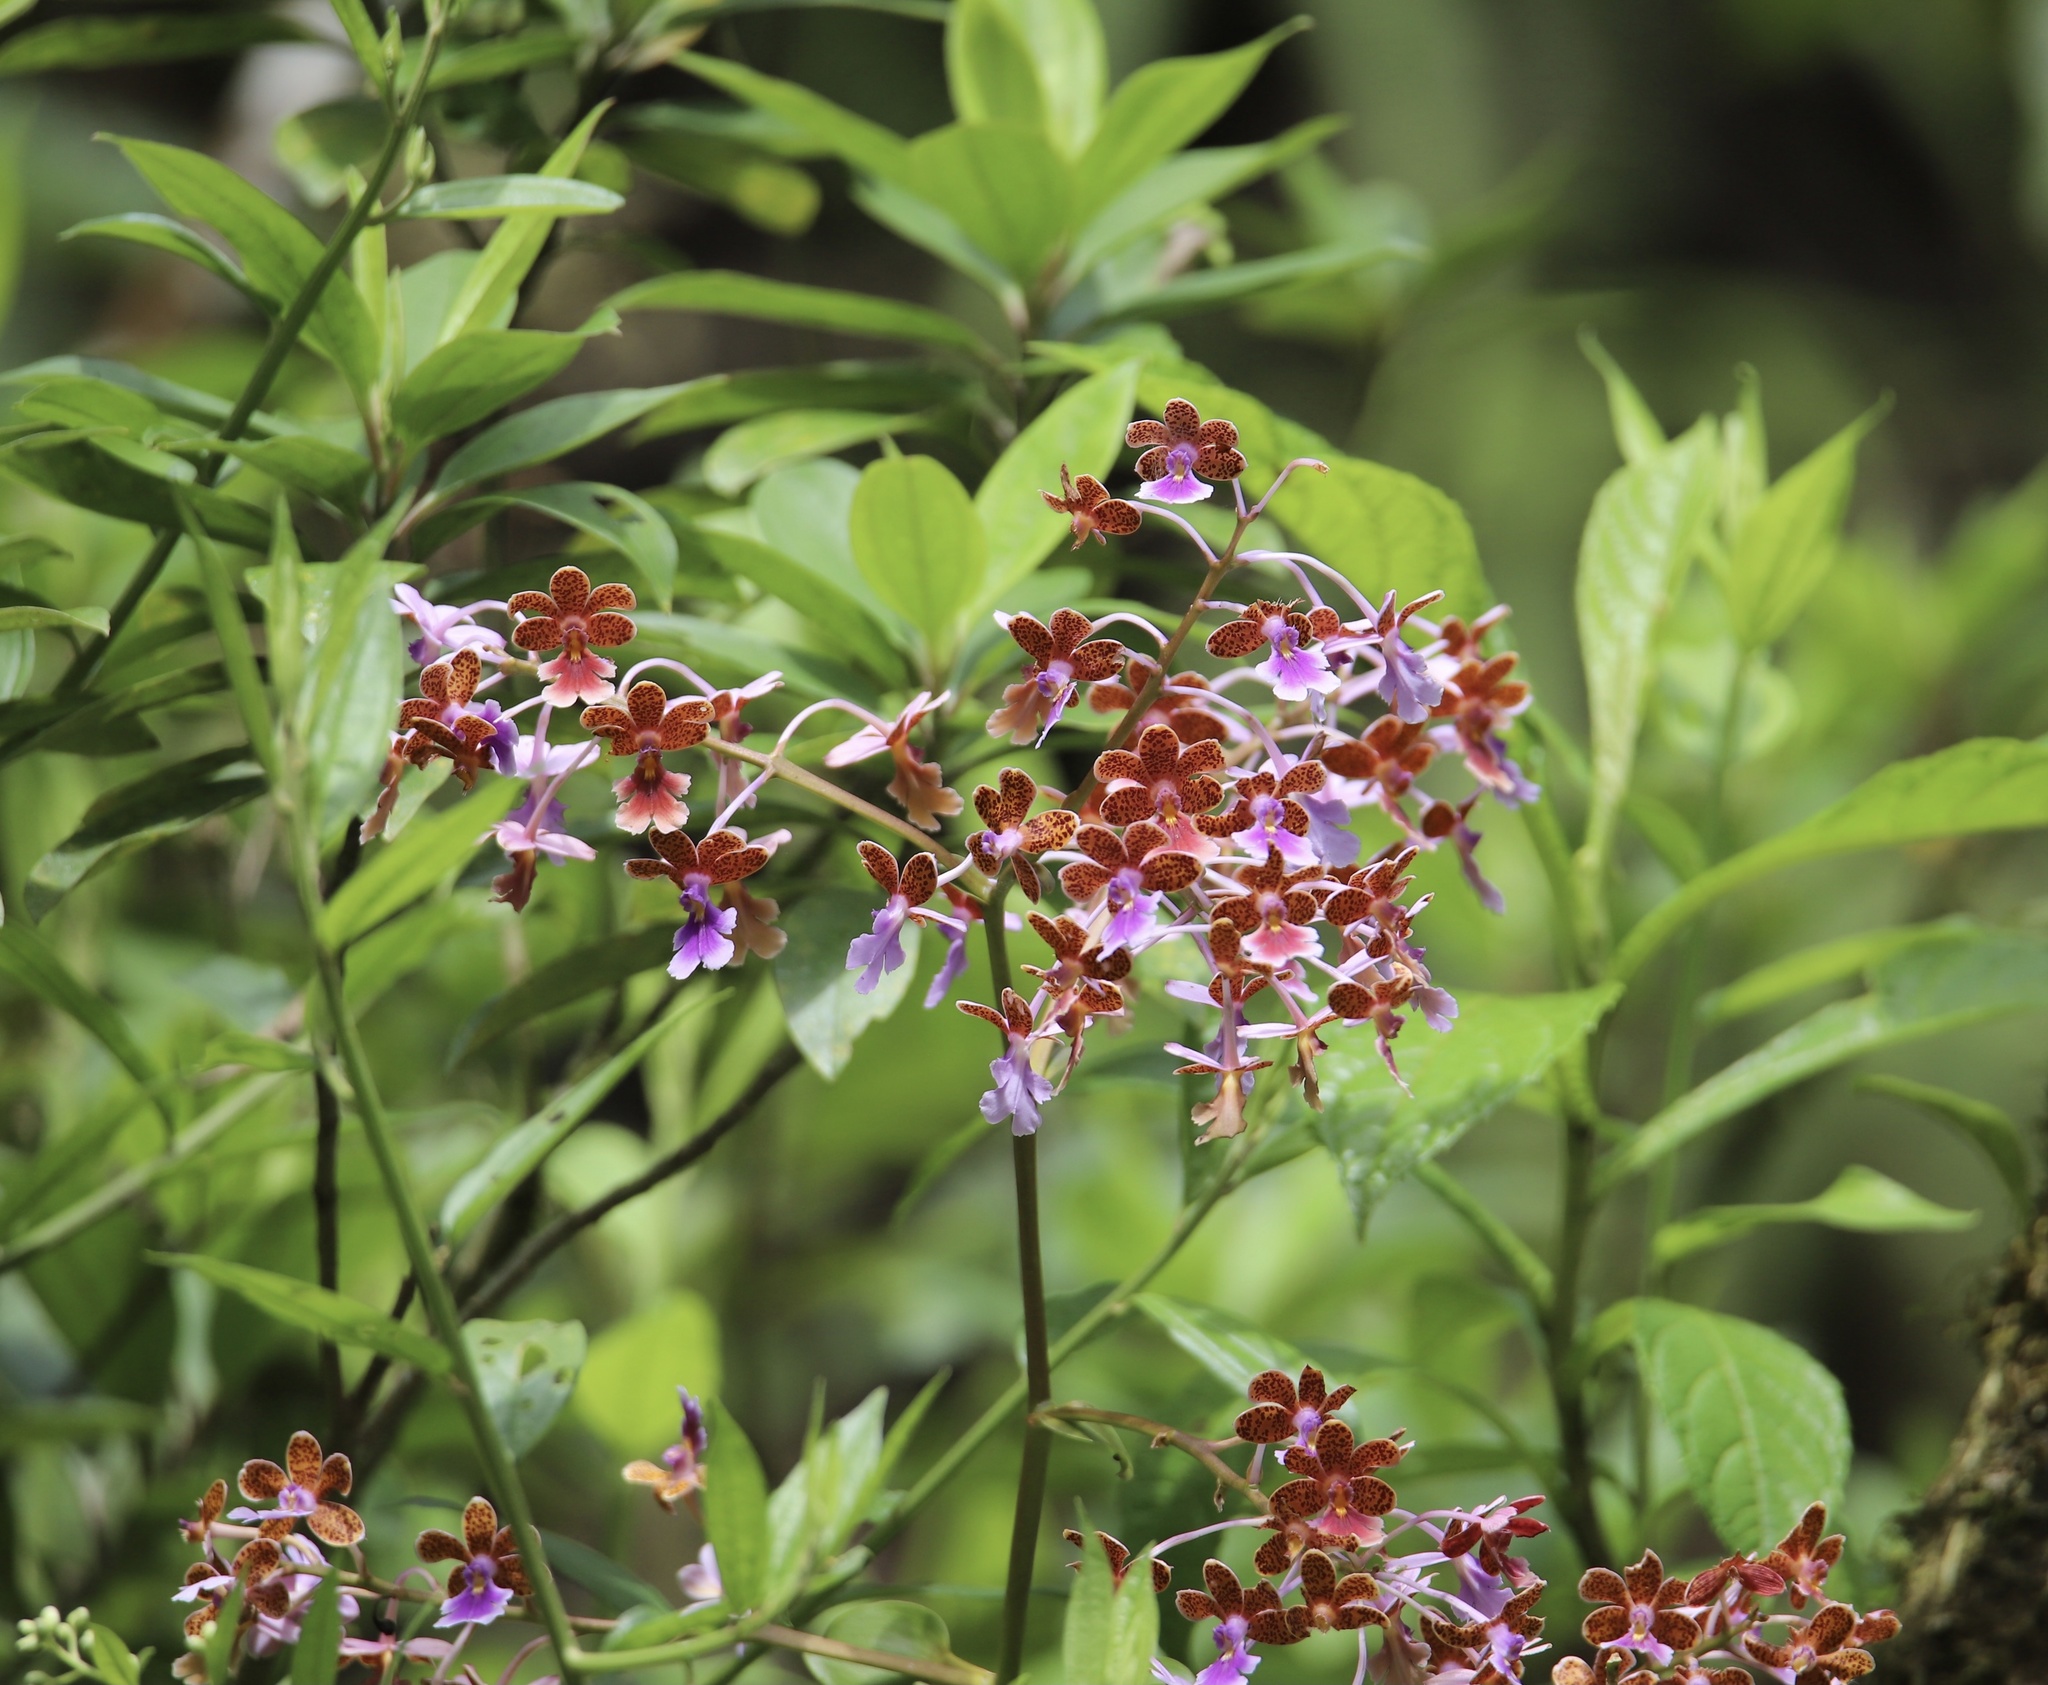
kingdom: Plantae
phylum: Tracheophyta
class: Liliopsida
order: Asparagales
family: Orchidaceae
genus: Epidendrum
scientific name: Epidendrum pseudoschumannianum
